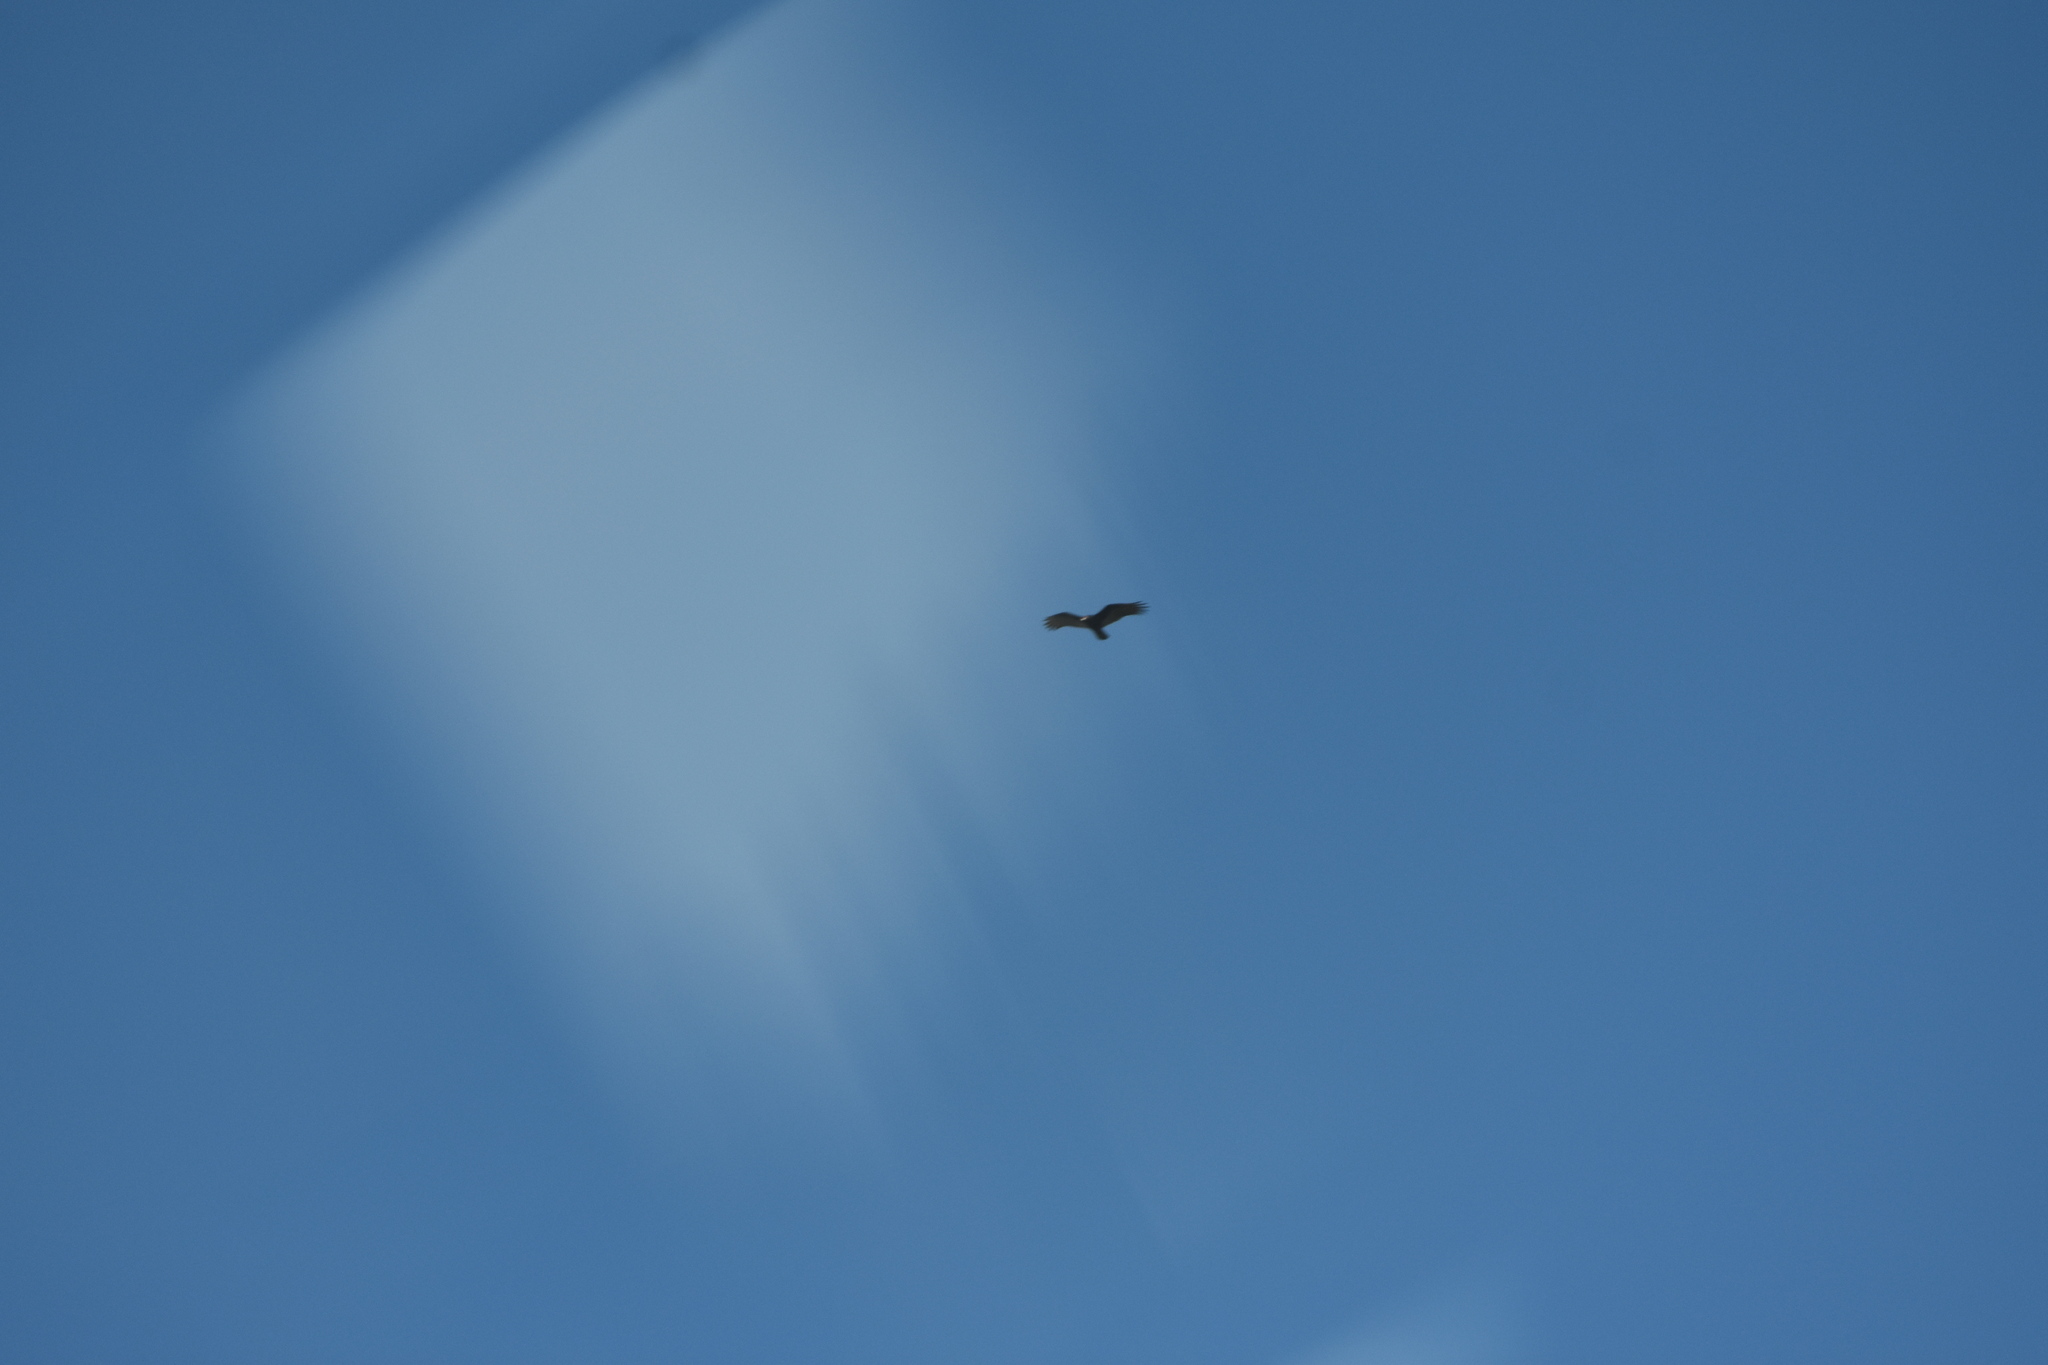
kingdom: Animalia
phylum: Chordata
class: Aves
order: Accipitriformes
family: Cathartidae
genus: Cathartes
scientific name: Cathartes aura
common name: Turkey vulture
